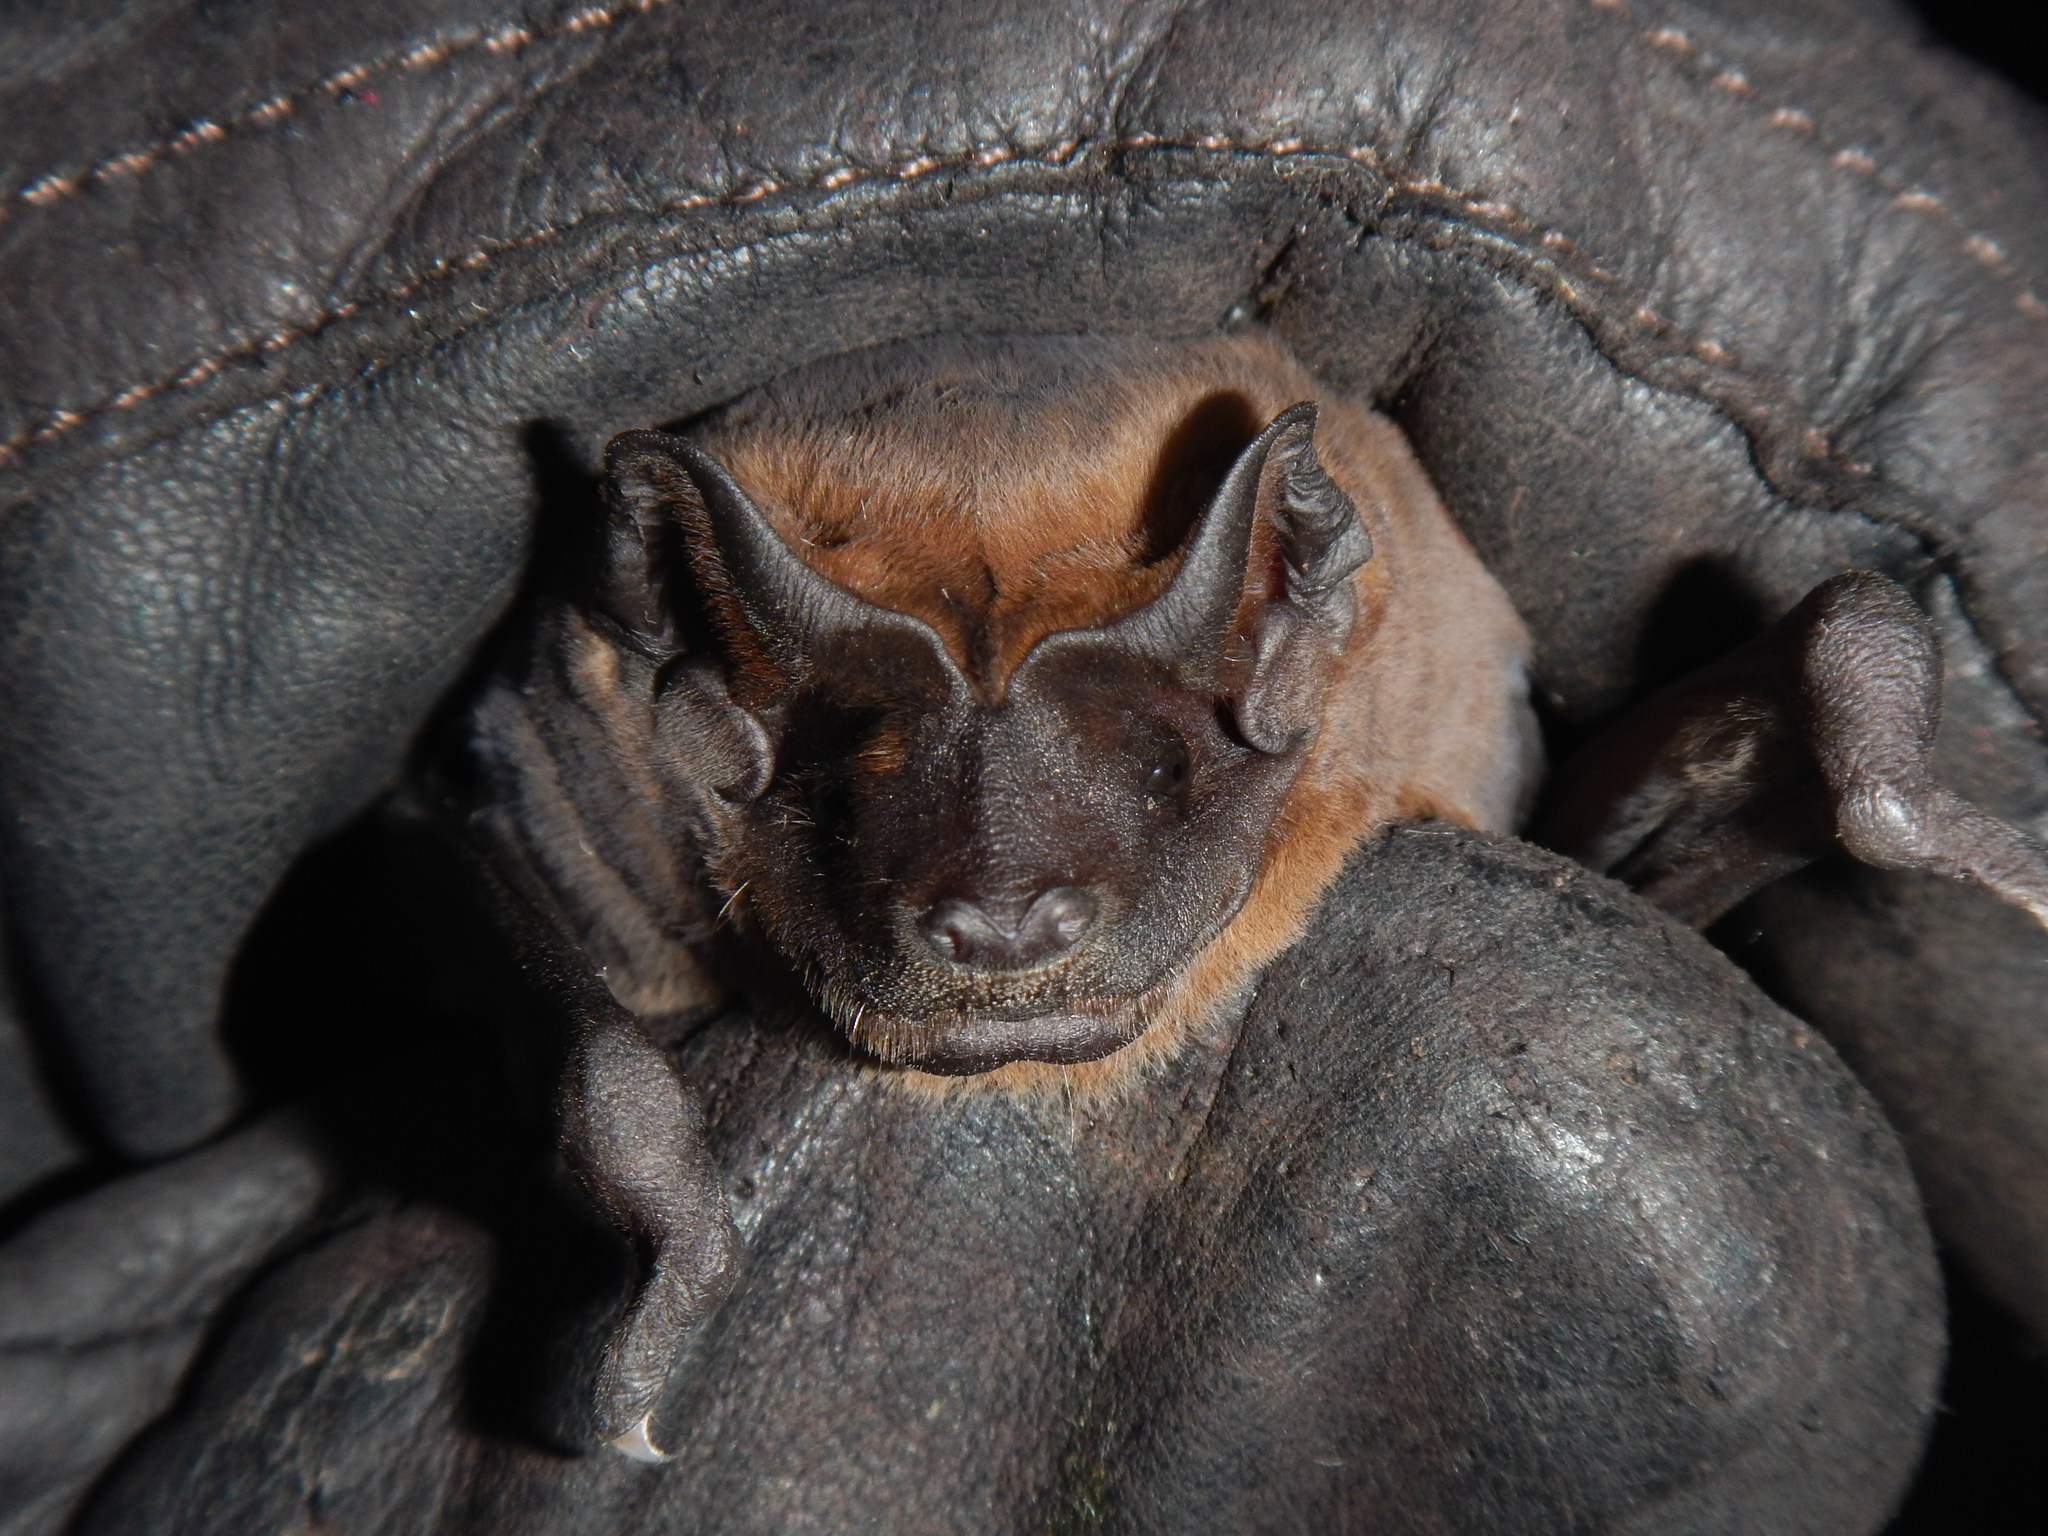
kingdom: Animalia
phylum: Chordata
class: Mammalia
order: Chiroptera
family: Molossidae
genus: Molossus
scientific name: Molossus molossus
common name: Pallas's mastiff bat
